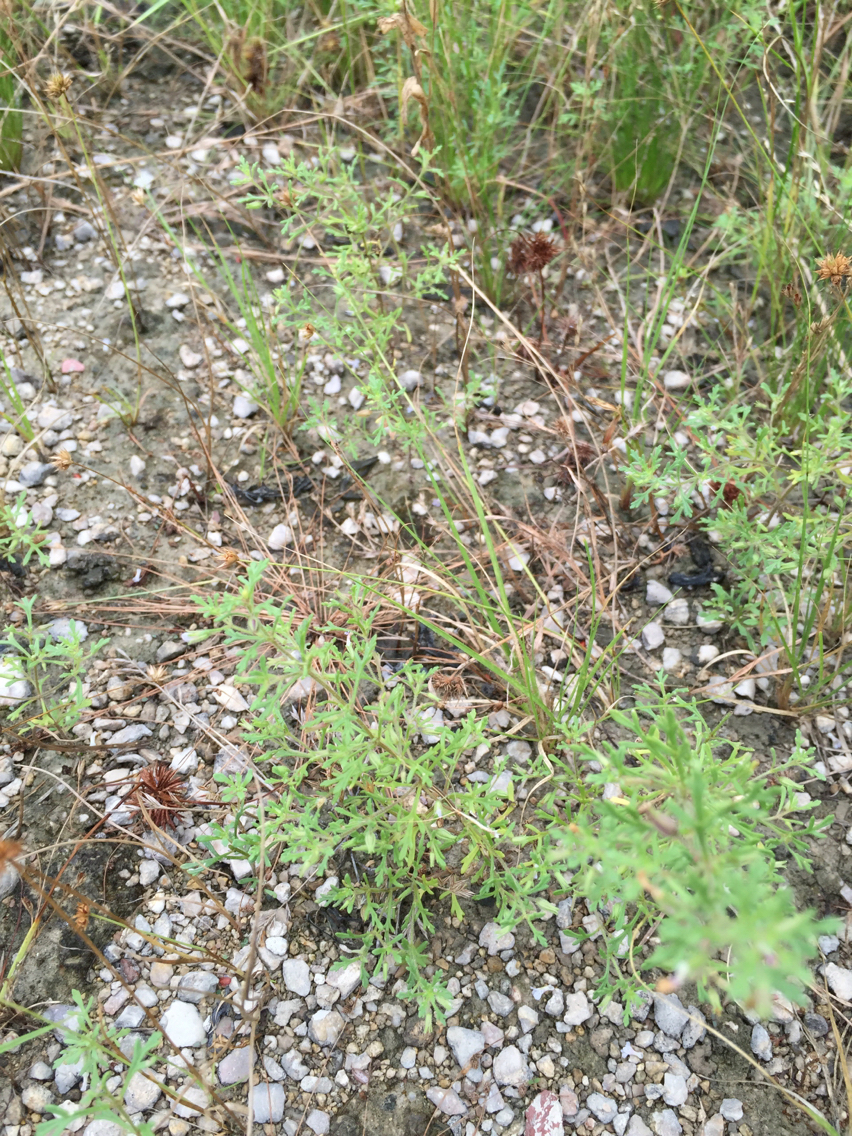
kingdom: Plantae
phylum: Tracheophyta
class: Magnoliopsida
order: Lamiales
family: Plantaginaceae
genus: Leucospora
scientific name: Leucospora multifida
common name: Narrow-leaf paleseed
